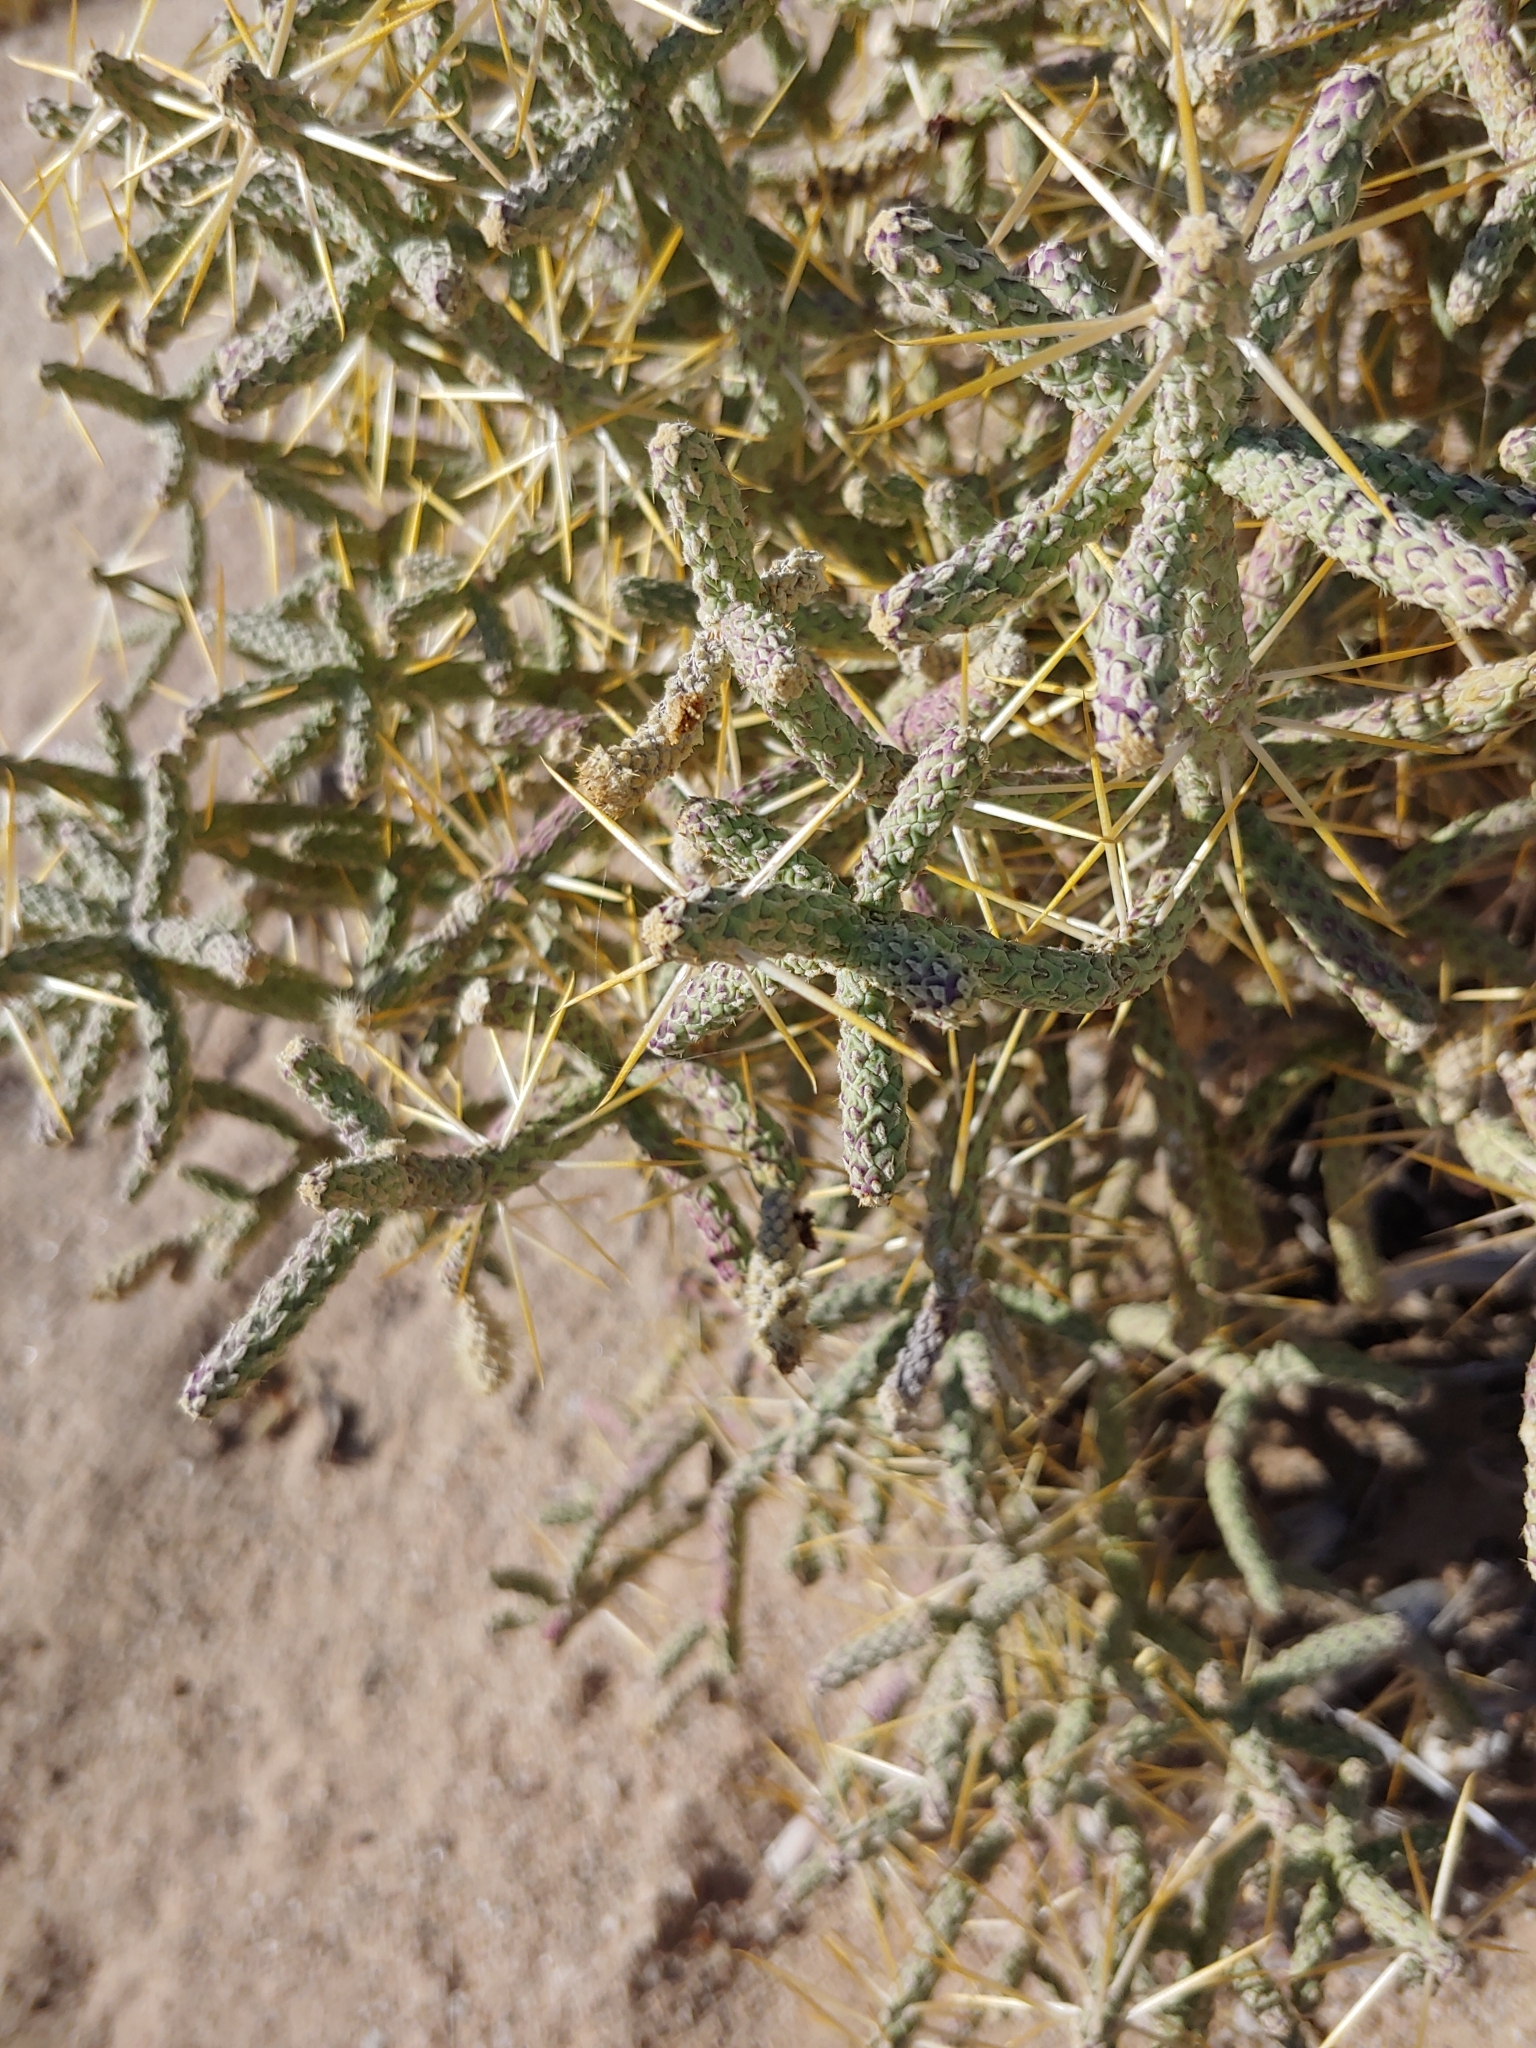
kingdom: Plantae
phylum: Tracheophyta
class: Magnoliopsida
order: Caryophyllales
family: Cactaceae
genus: Cylindropuntia
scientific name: Cylindropuntia ramosissima
